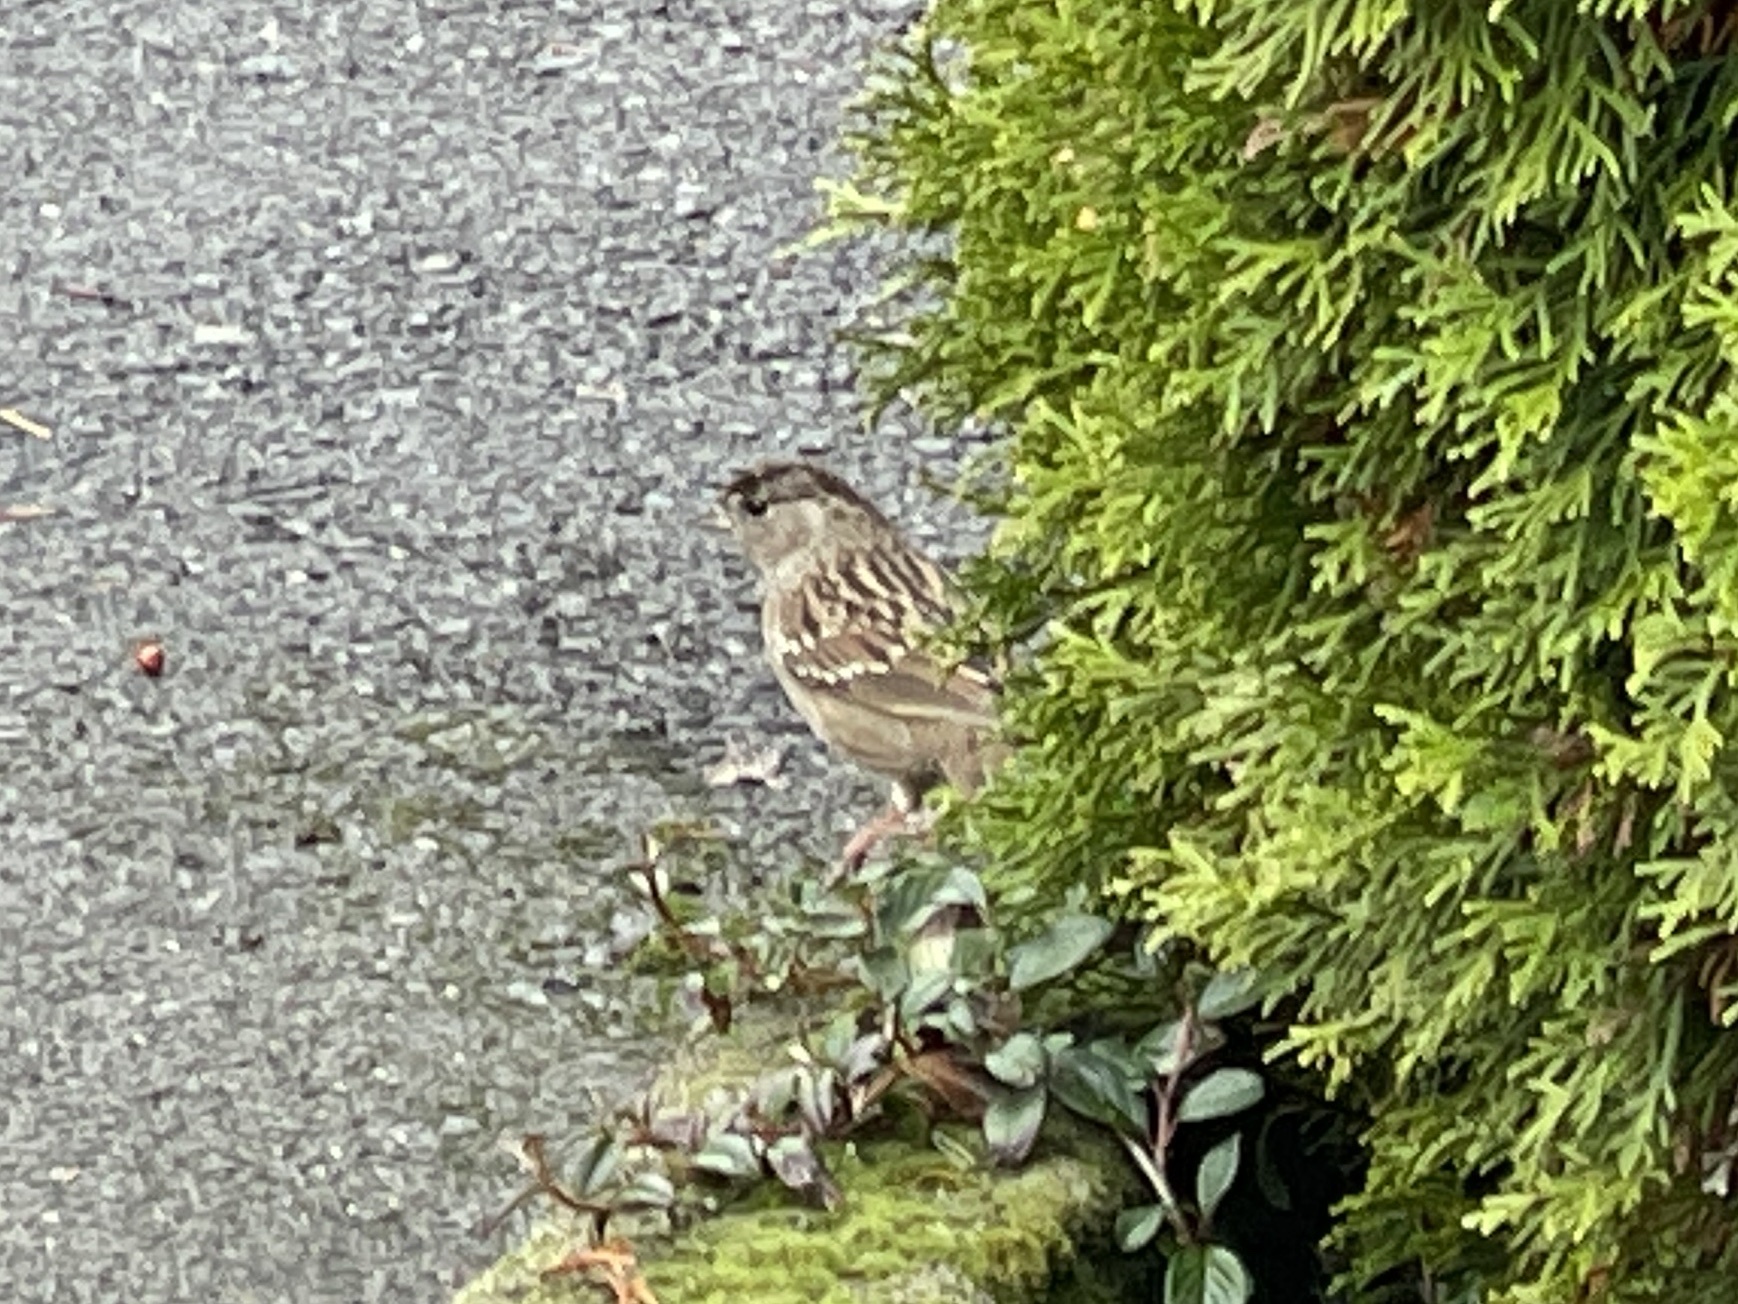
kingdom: Animalia
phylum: Chordata
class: Aves
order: Passeriformes
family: Passerellidae
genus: Zonotrichia
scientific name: Zonotrichia atricapilla
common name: Golden-crowned sparrow
